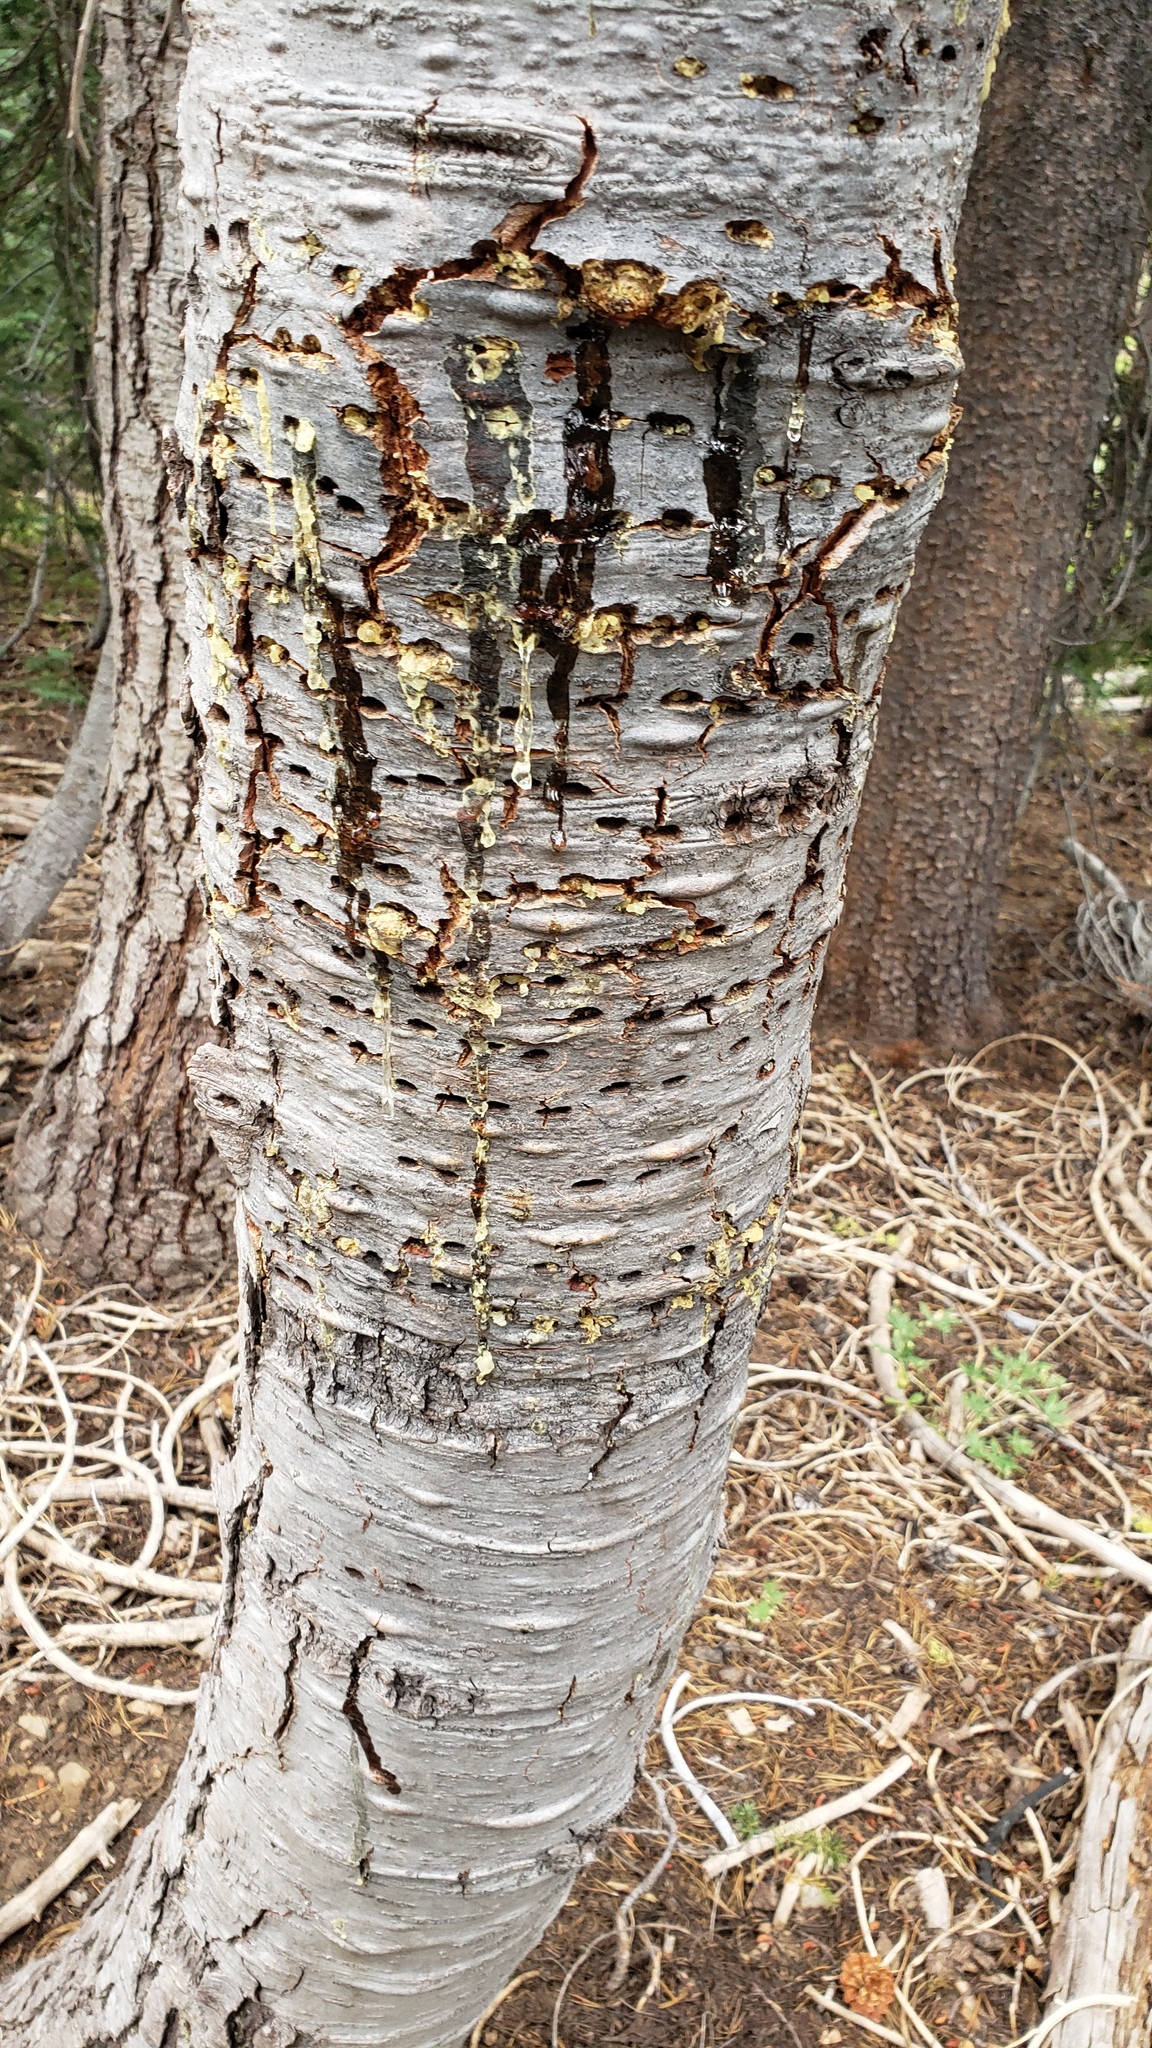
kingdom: Animalia
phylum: Chordata
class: Aves
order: Piciformes
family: Picidae
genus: Sphyrapicus
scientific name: Sphyrapicus
